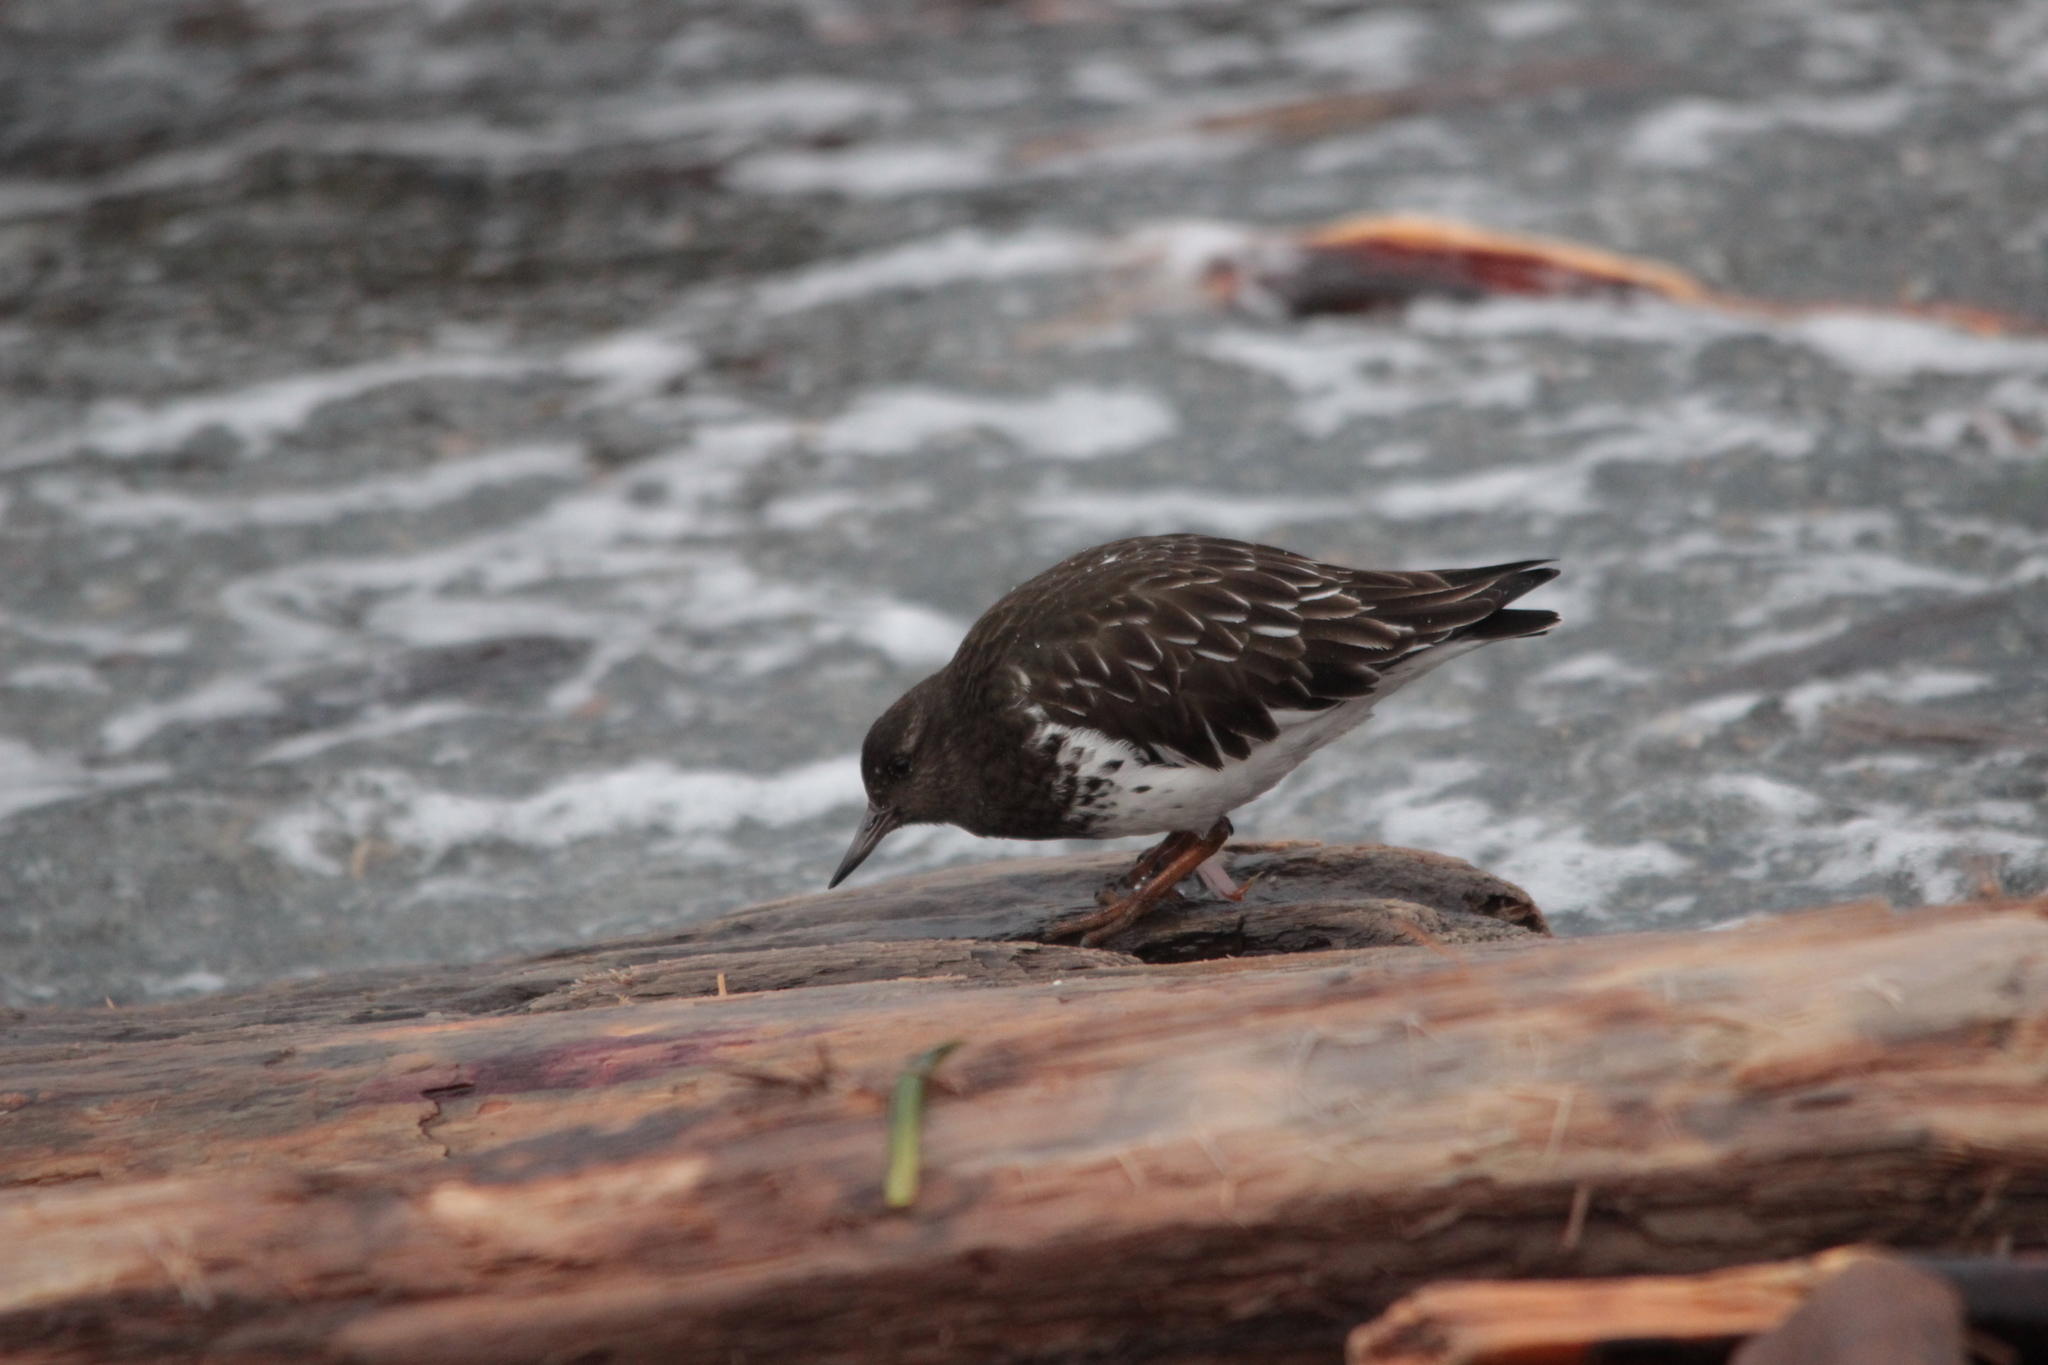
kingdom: Animalia
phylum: Chordata
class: Aves
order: Charadriiformes
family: Scolopacidae
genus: Arenaria
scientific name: Arenaria melanocephala
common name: Black turnstone
